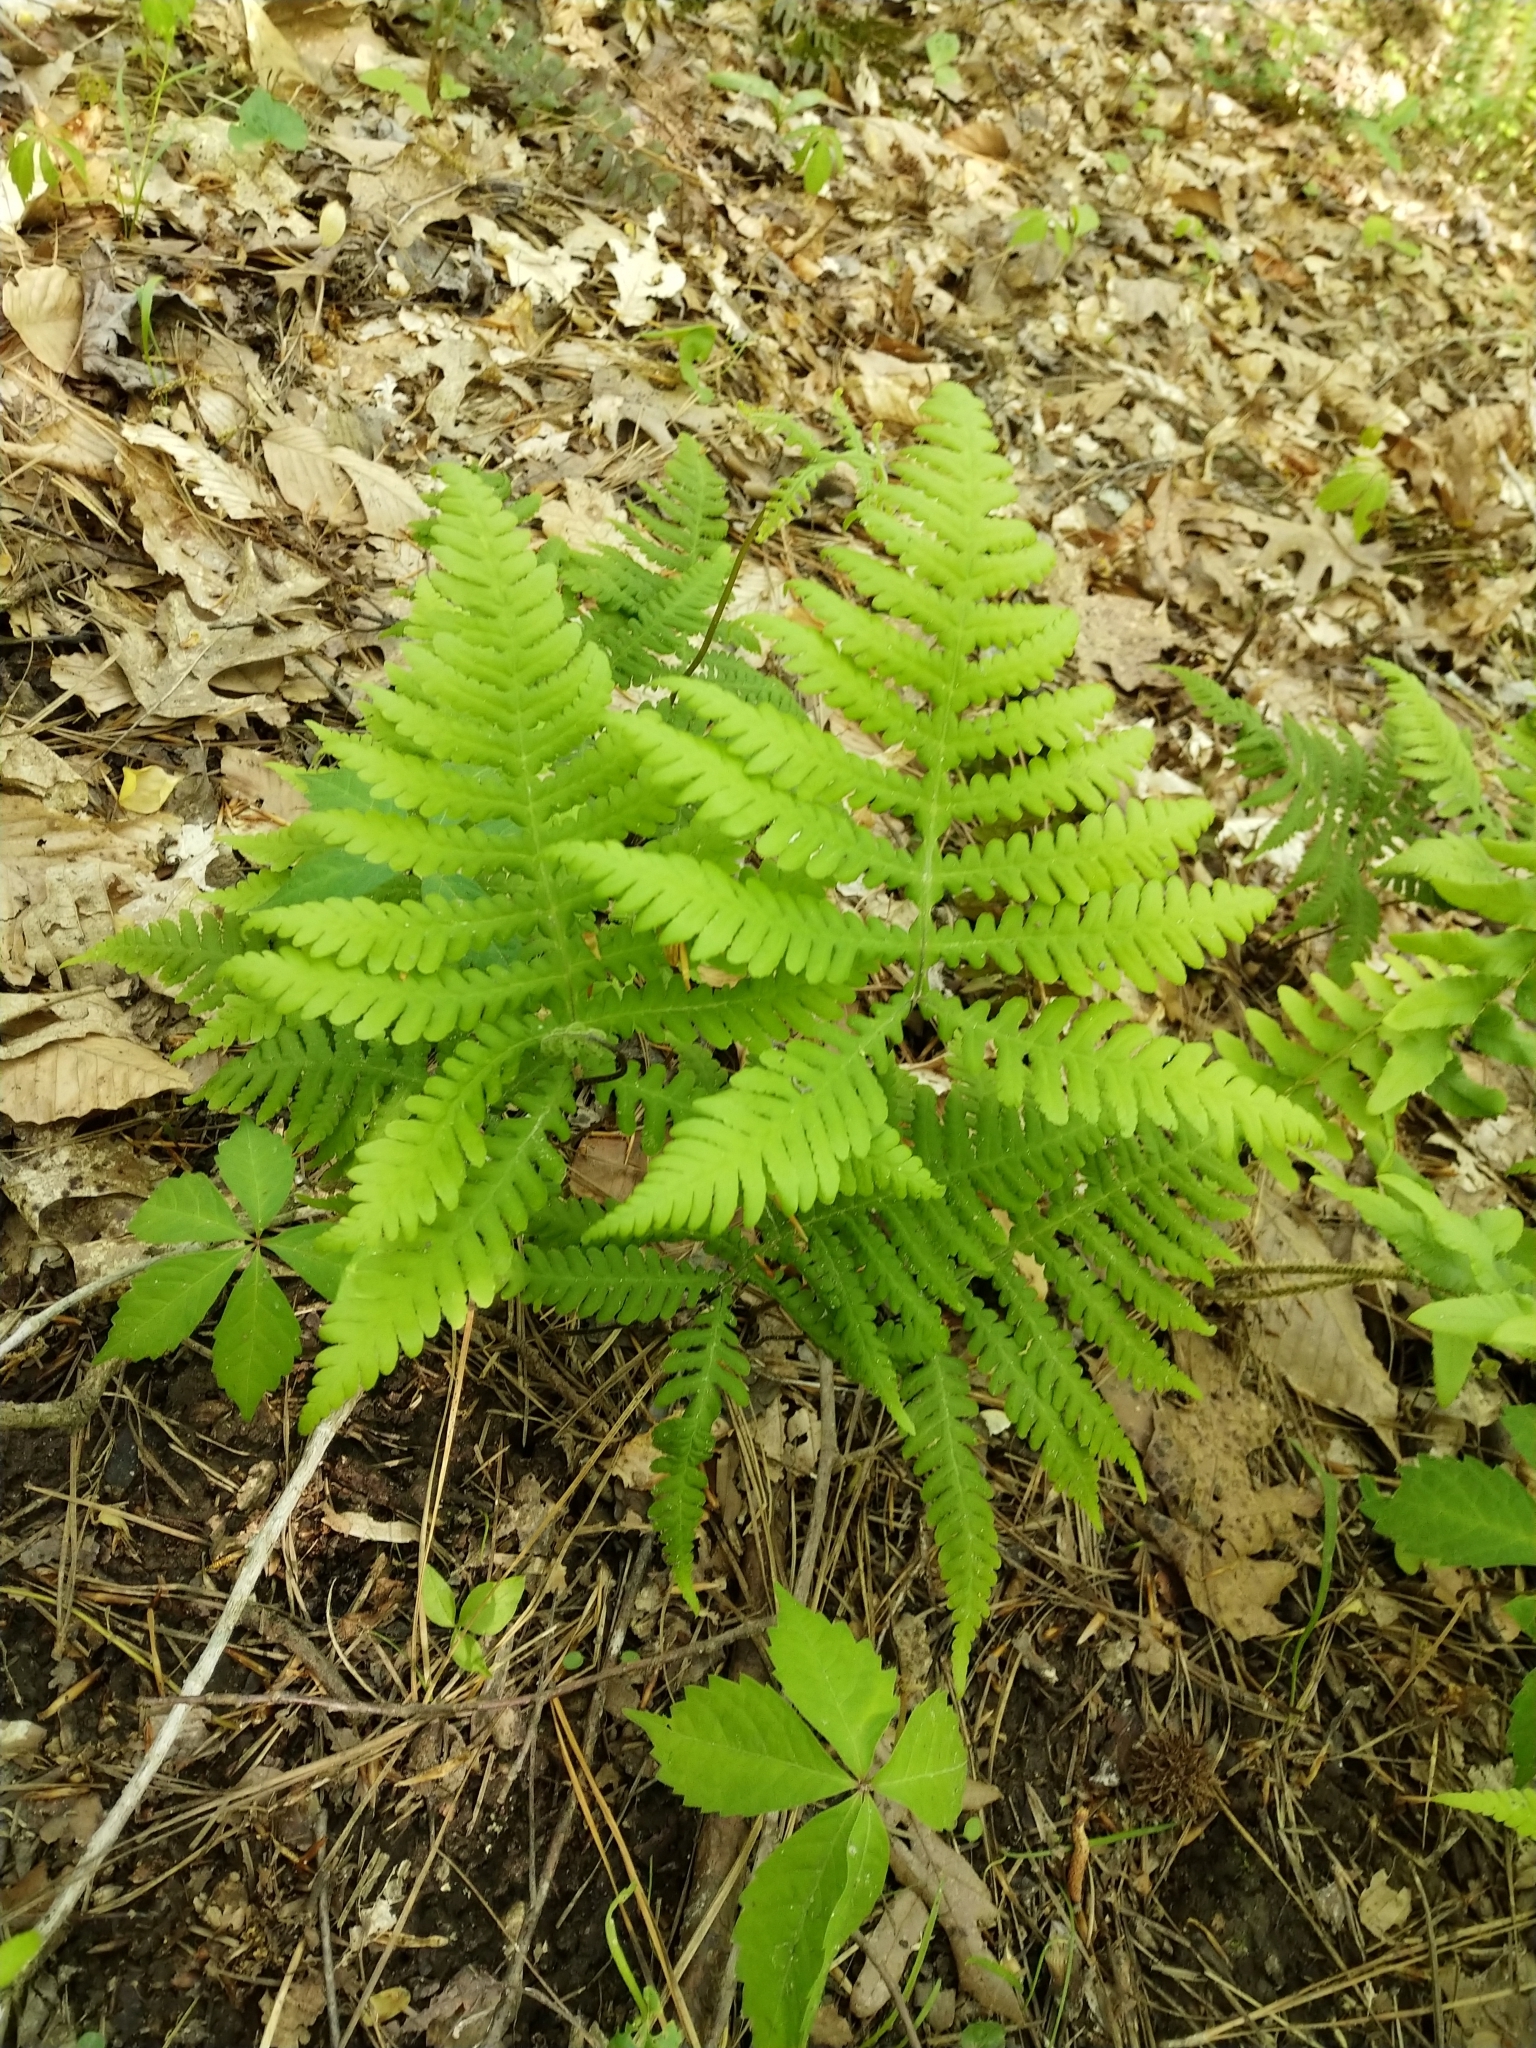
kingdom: Plantae
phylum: Tracheophyta
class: Polypodiopsida
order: Polypodiales
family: Thelypteridaceae
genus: Phegopteris
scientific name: Phegopteris hexagonoptera
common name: Broad beech fern
